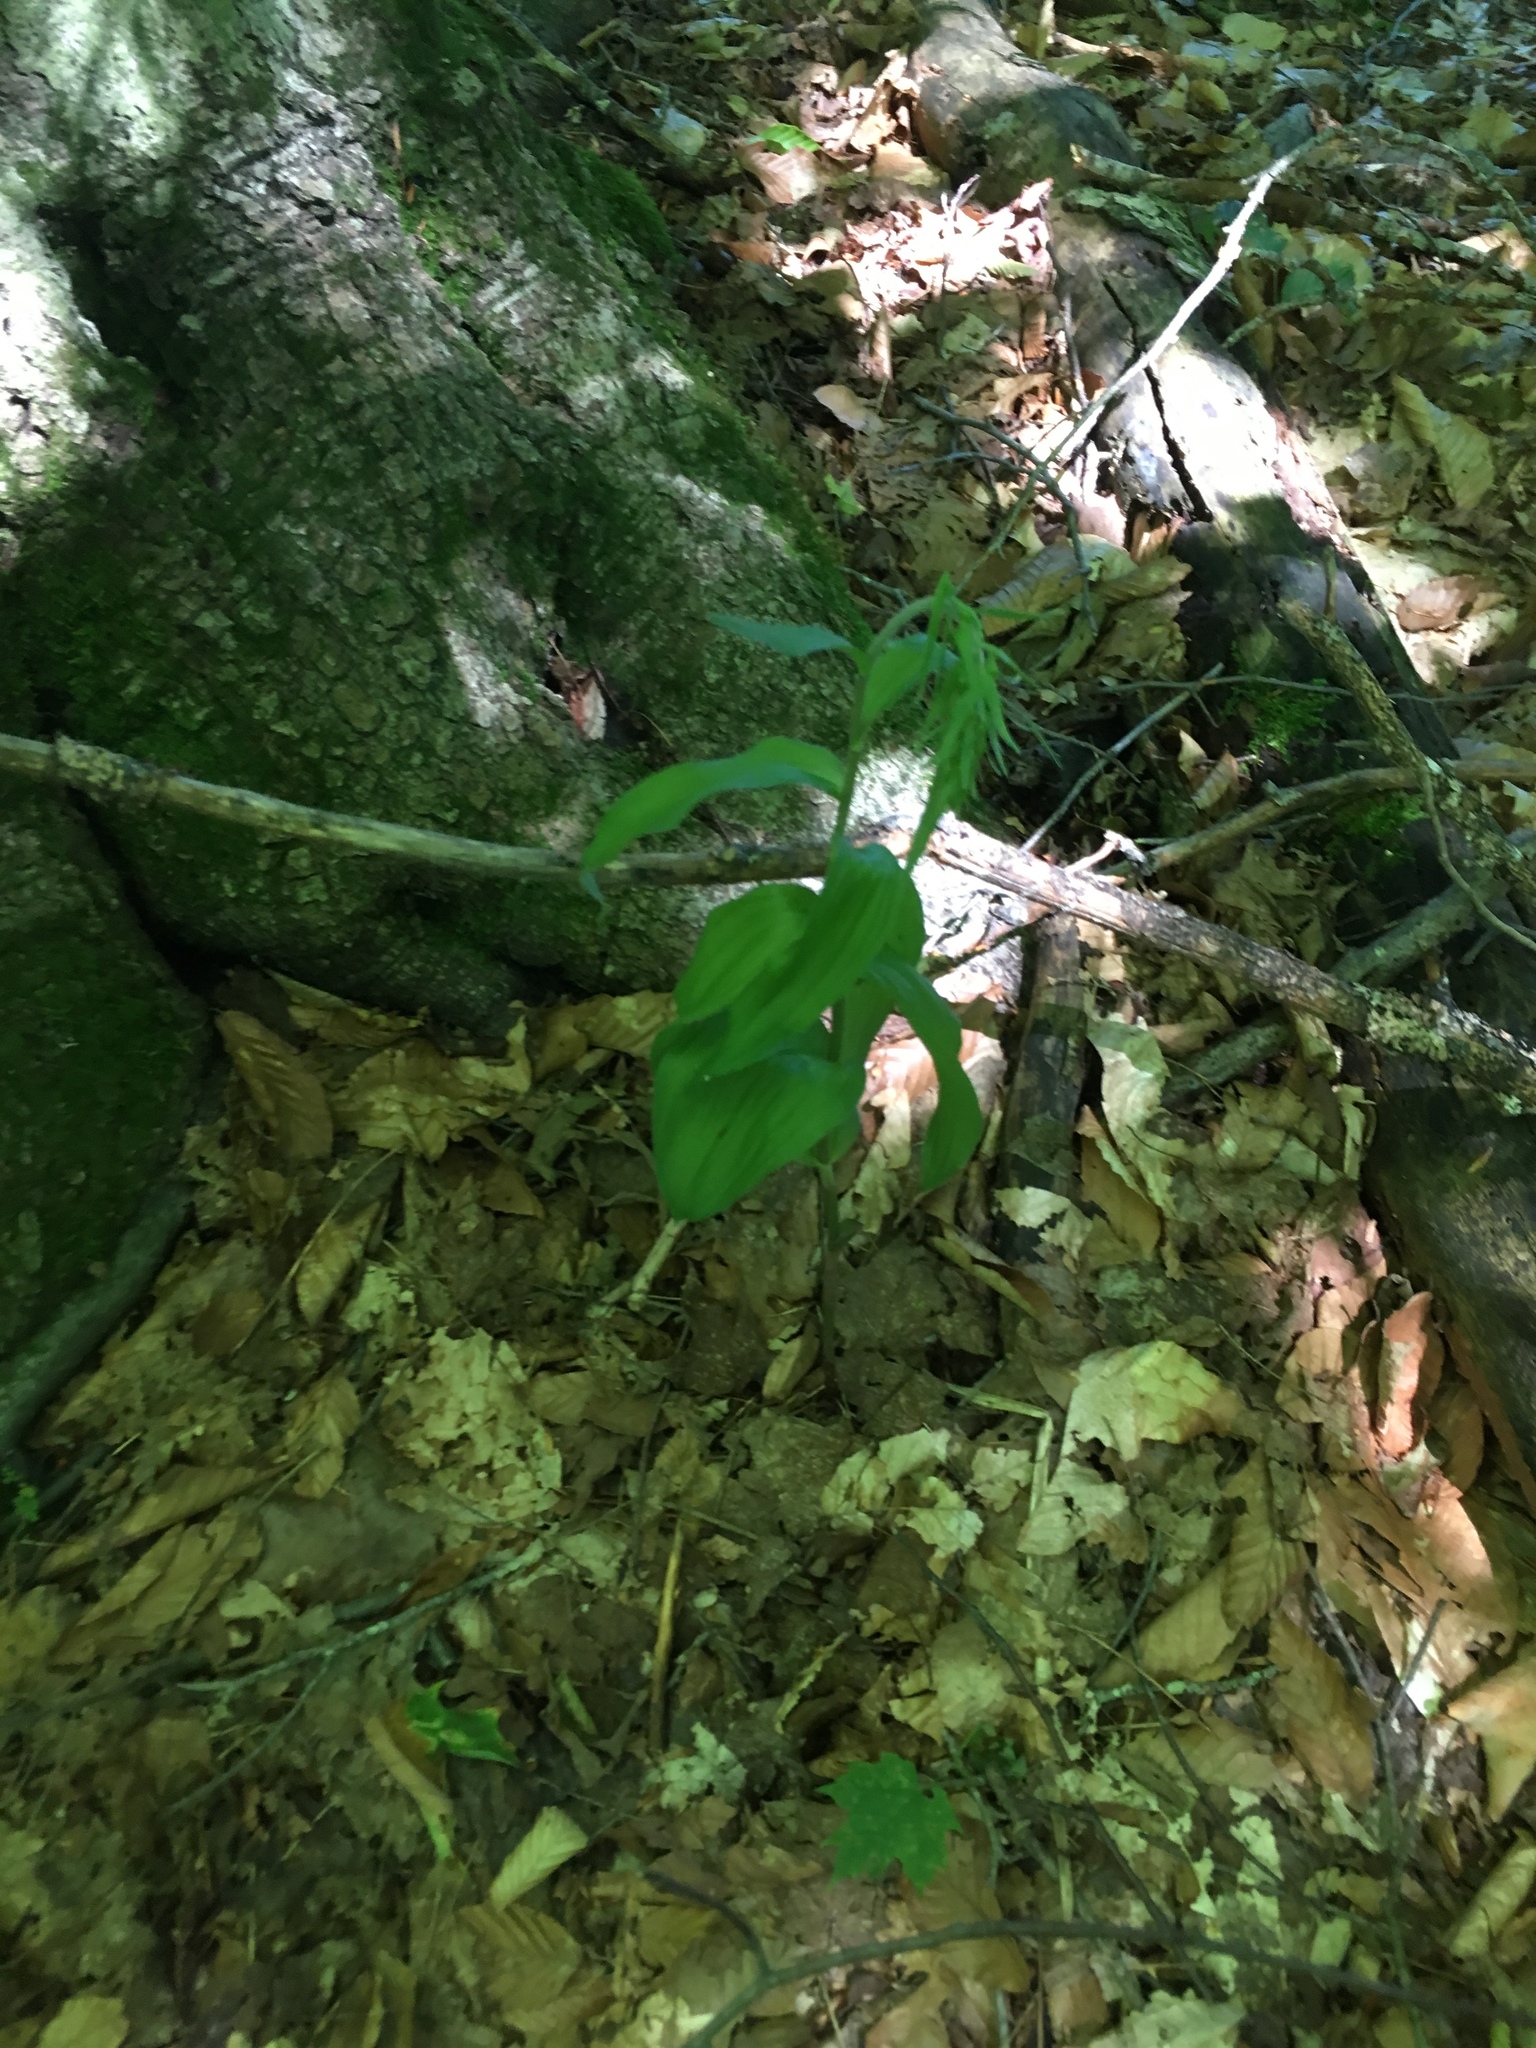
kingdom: Plantae
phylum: Tracheophyta
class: Liliopsida
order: Asparagales
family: Orchidaceae
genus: Epipactis
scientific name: Epipactis helleborine
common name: Broad-leaved helleborine
